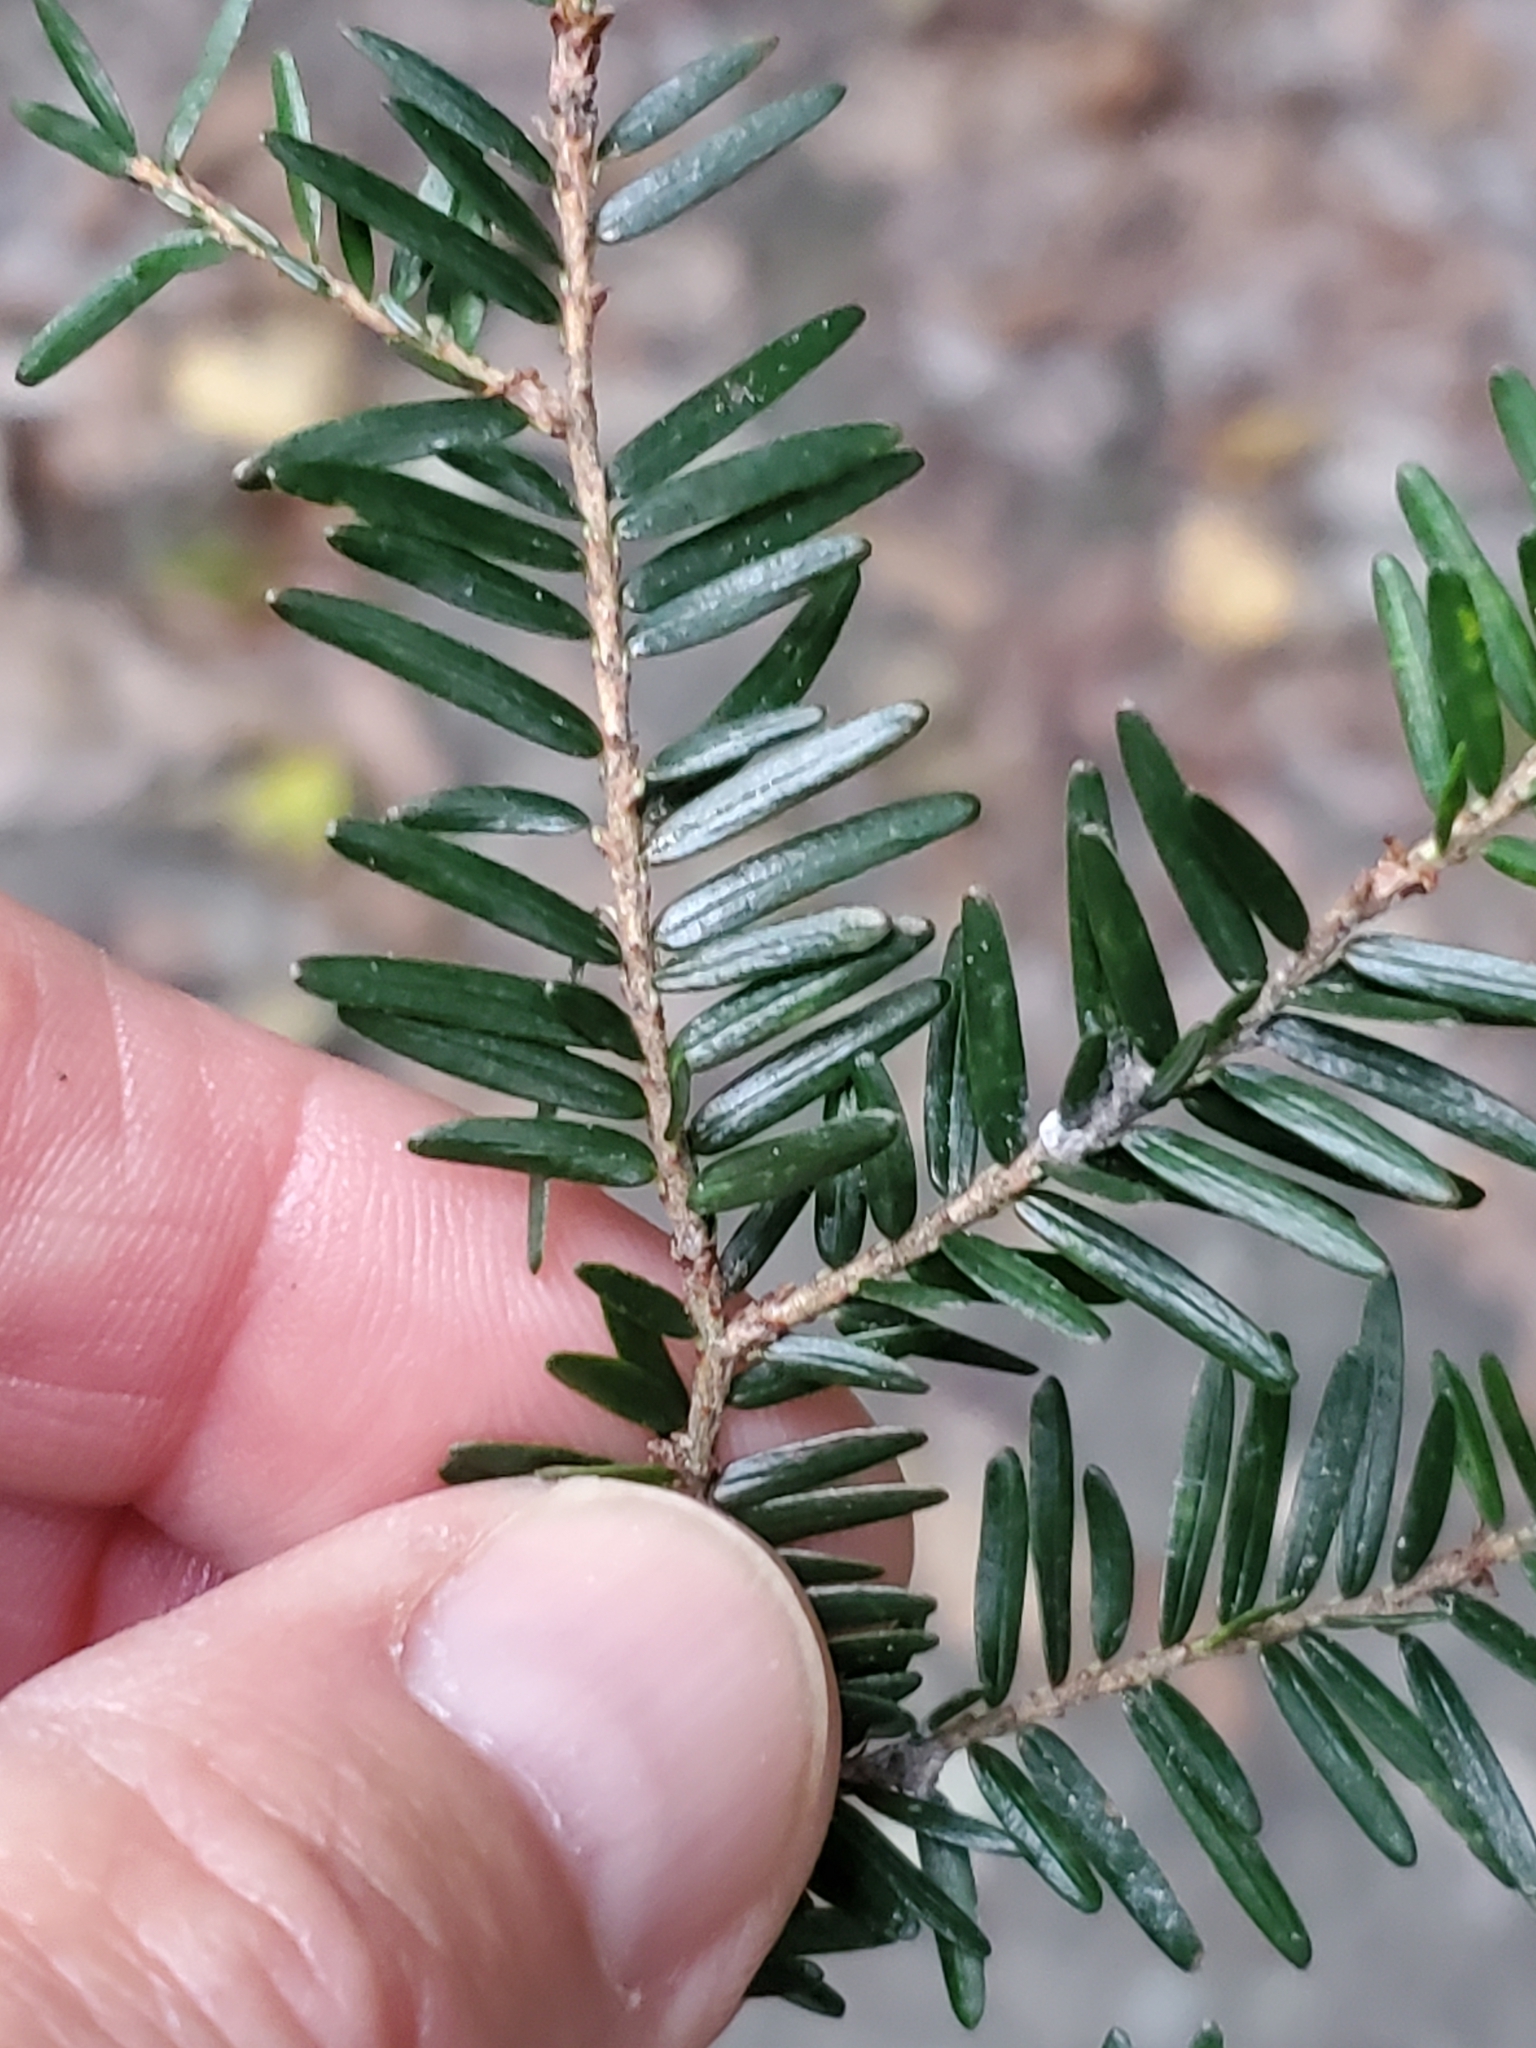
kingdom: Plantae
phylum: Tracheophyta
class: Pinopsida
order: Pinales
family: Pinaceae
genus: Tsuga
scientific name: Tsuga canadensis
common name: Eastern hemlock
